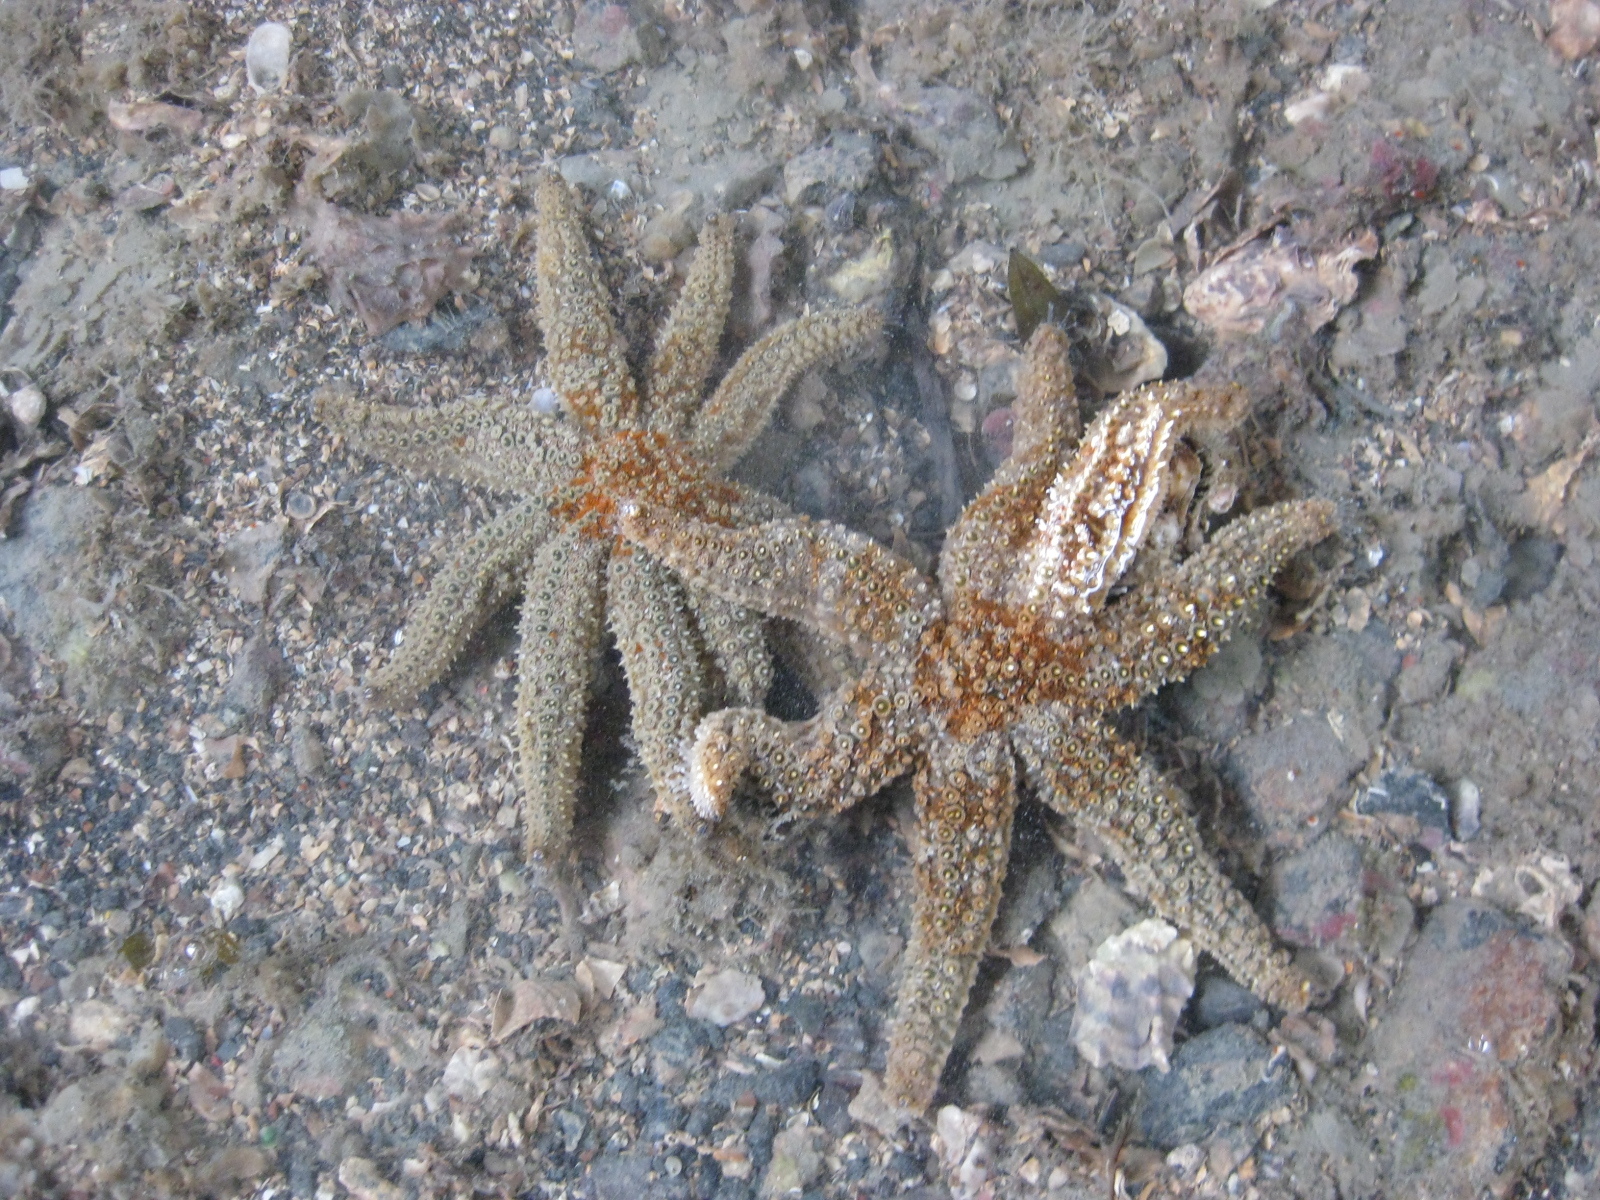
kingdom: Animalia
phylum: Echinodermata
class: Asteroidea
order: Forcipulatida
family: Asteriidae
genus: Coscinasterias
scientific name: Coscinasterias muricata
